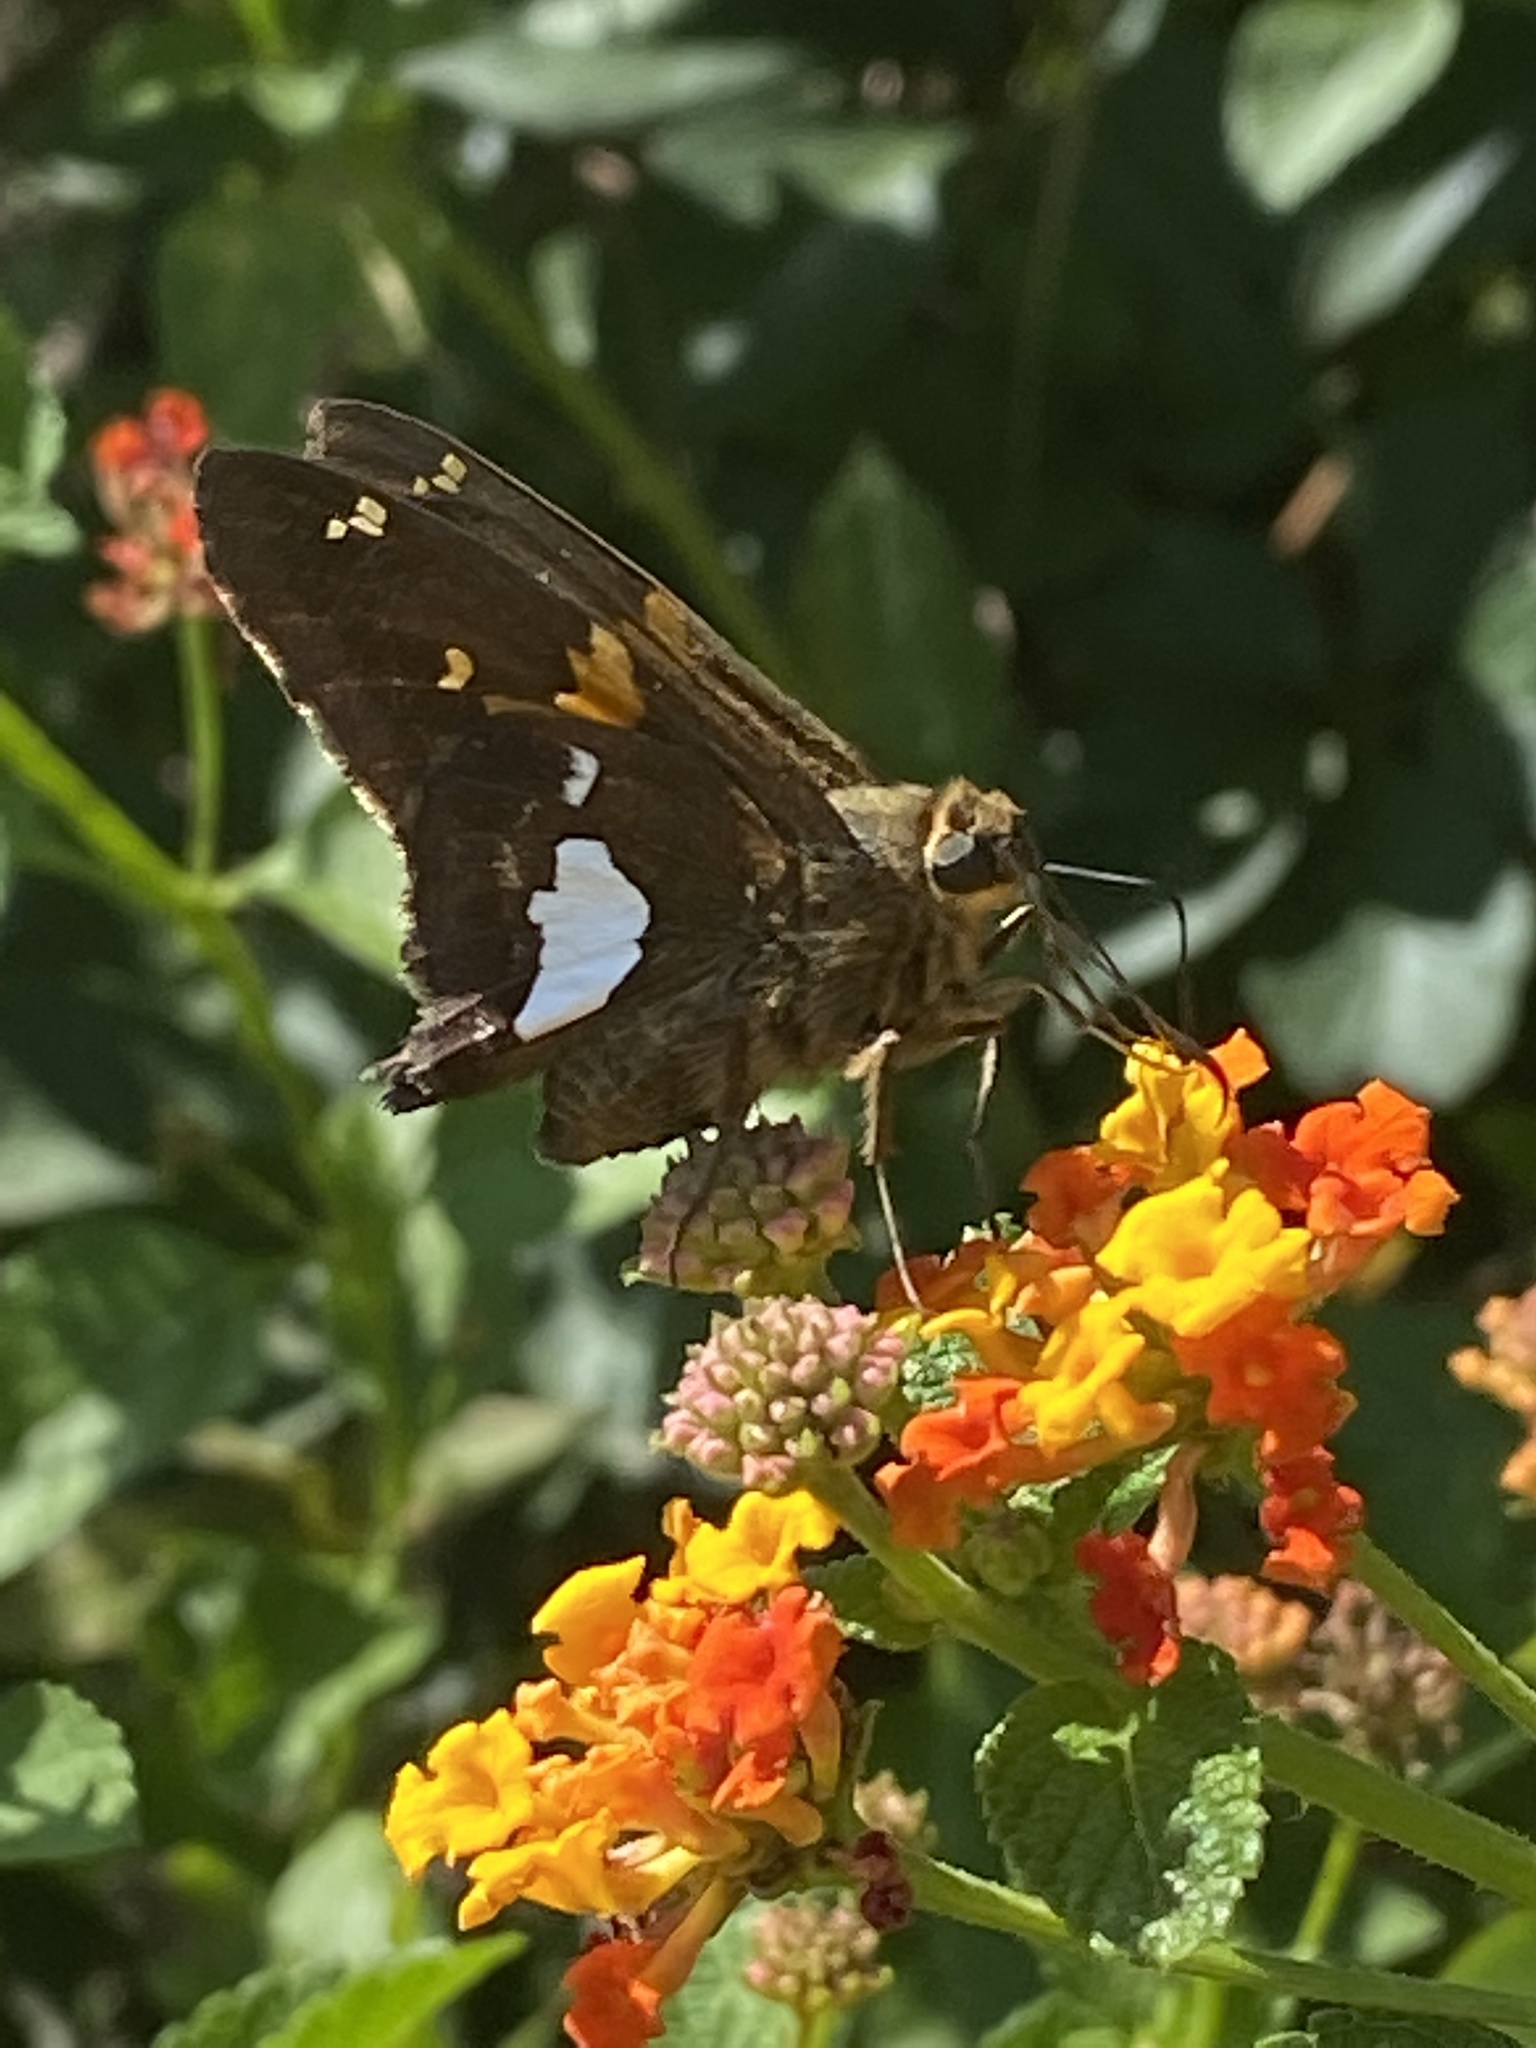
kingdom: Animalia
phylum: Arthropoda
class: Insecta
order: Lepidoptera
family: Hesperiidae
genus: Epargyreus
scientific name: Epargyreus clarus
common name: Silver-spotted skipper
